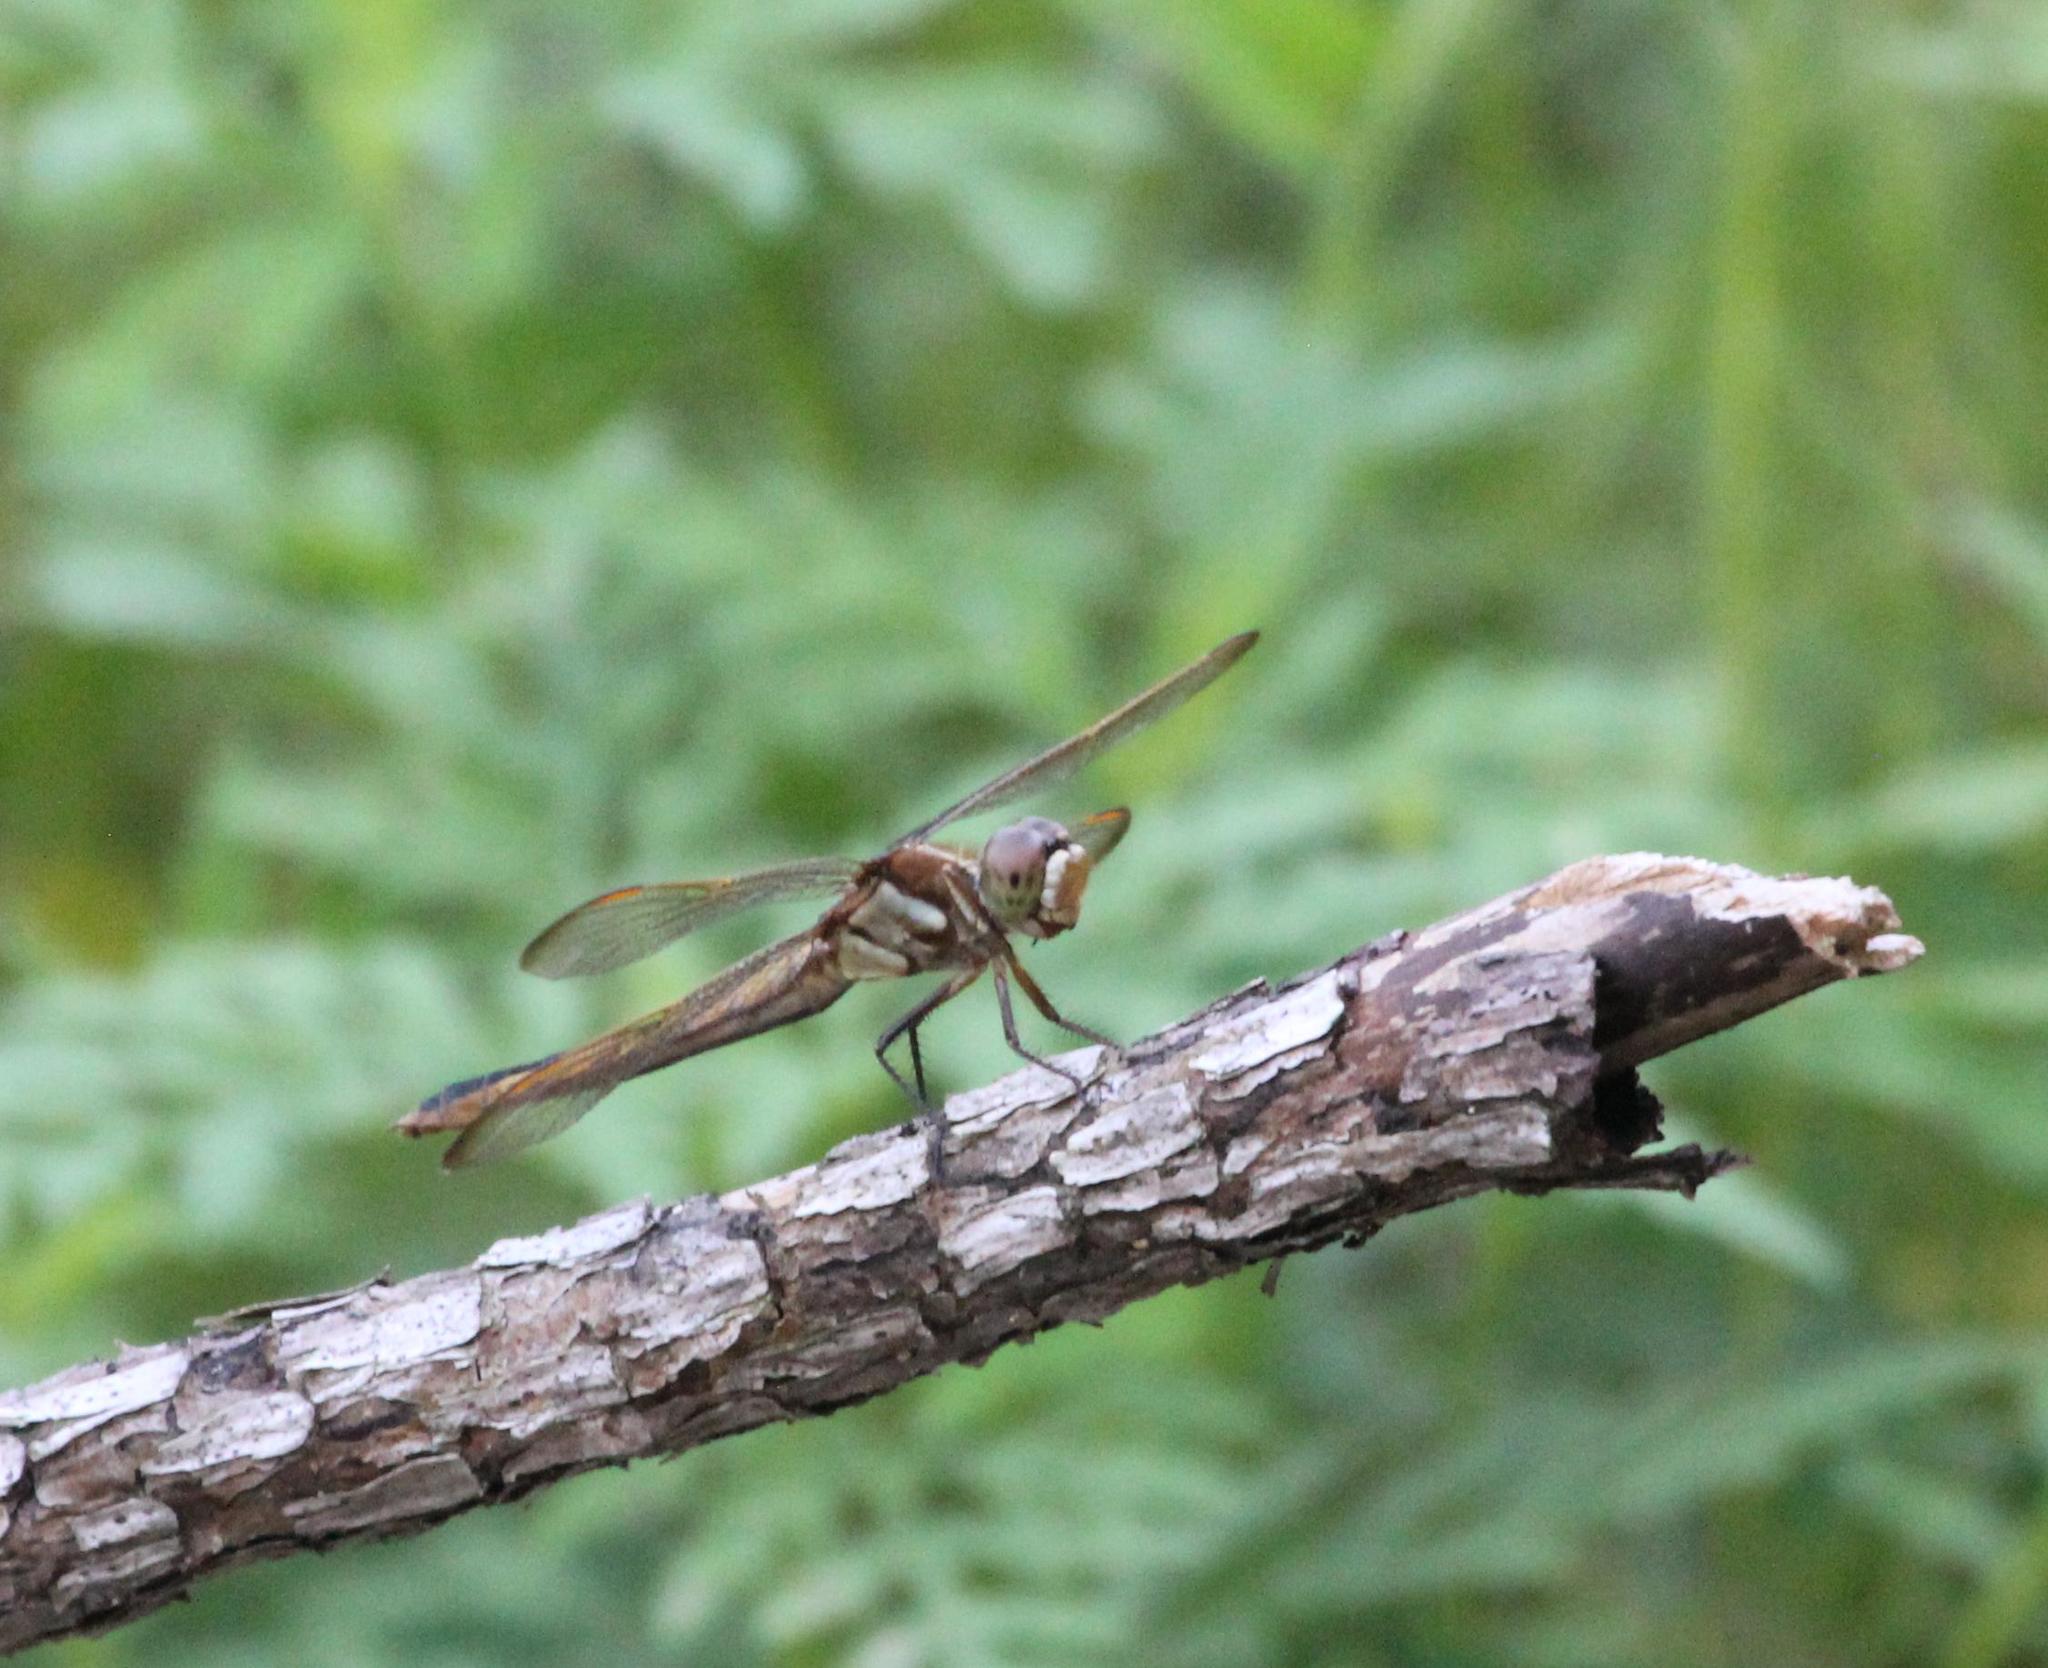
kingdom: Animalia
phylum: Arthropoda
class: Insecta
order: Odonata
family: Libellulidae
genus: Libellula
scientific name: Libellula auripennis
